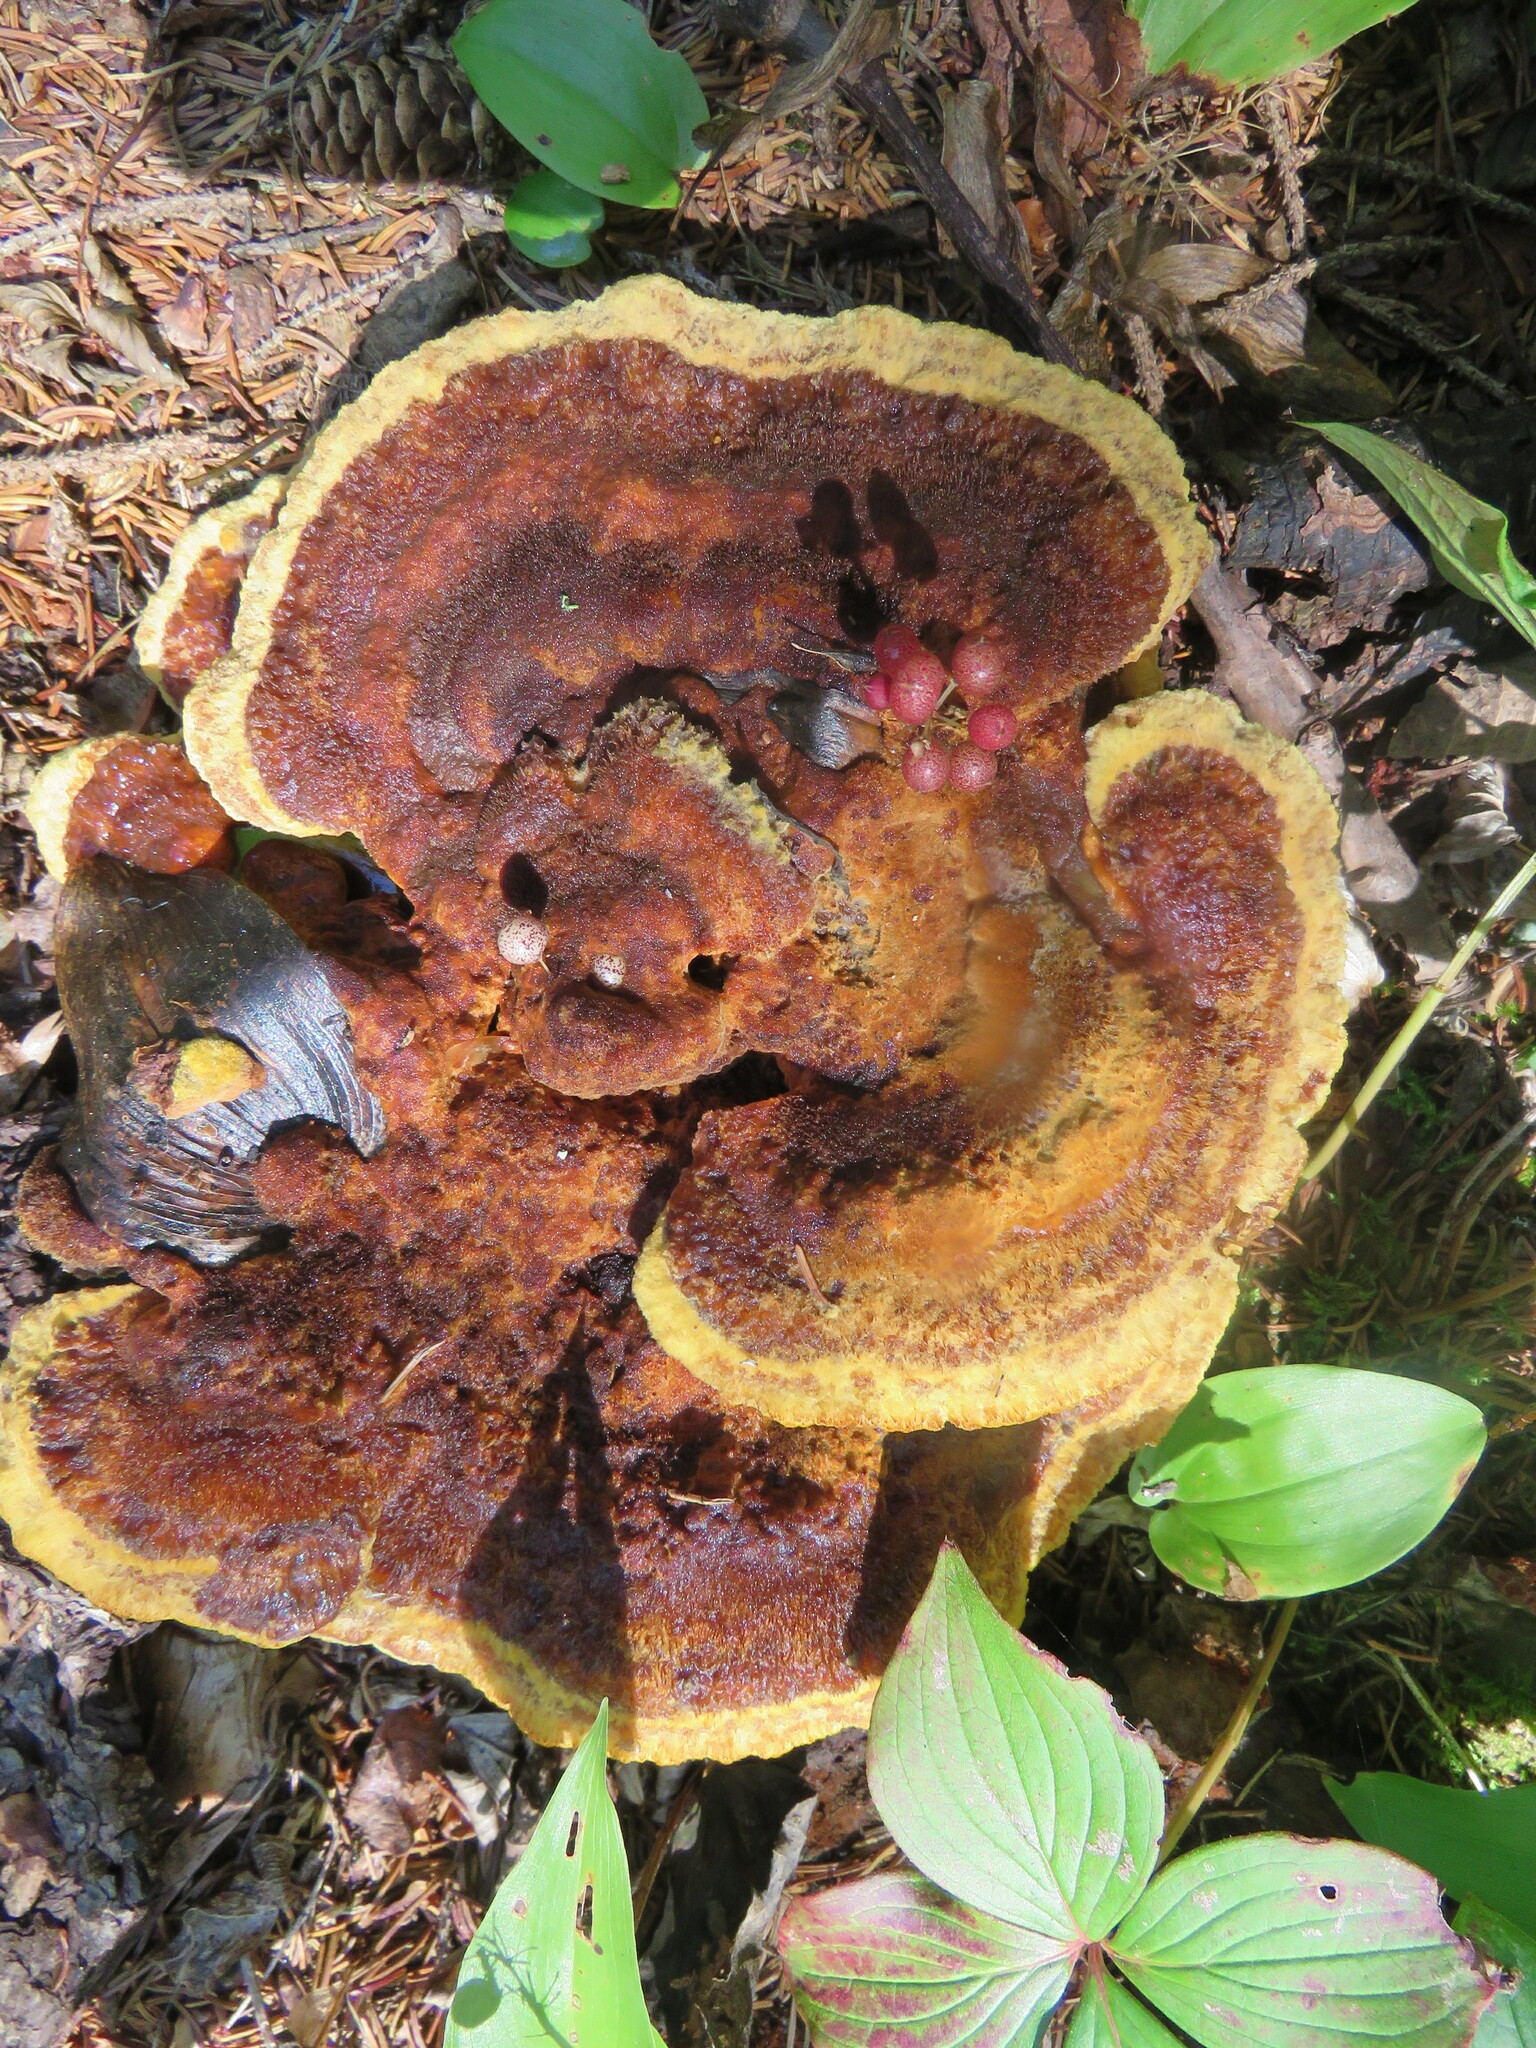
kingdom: Fungi
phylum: Basidiomycota
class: Agaricomycetes
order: Polyporales
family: Laetiporaceae
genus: Phaeolus
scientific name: Phaeolus schweinitzii
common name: Dyer's mazegill
